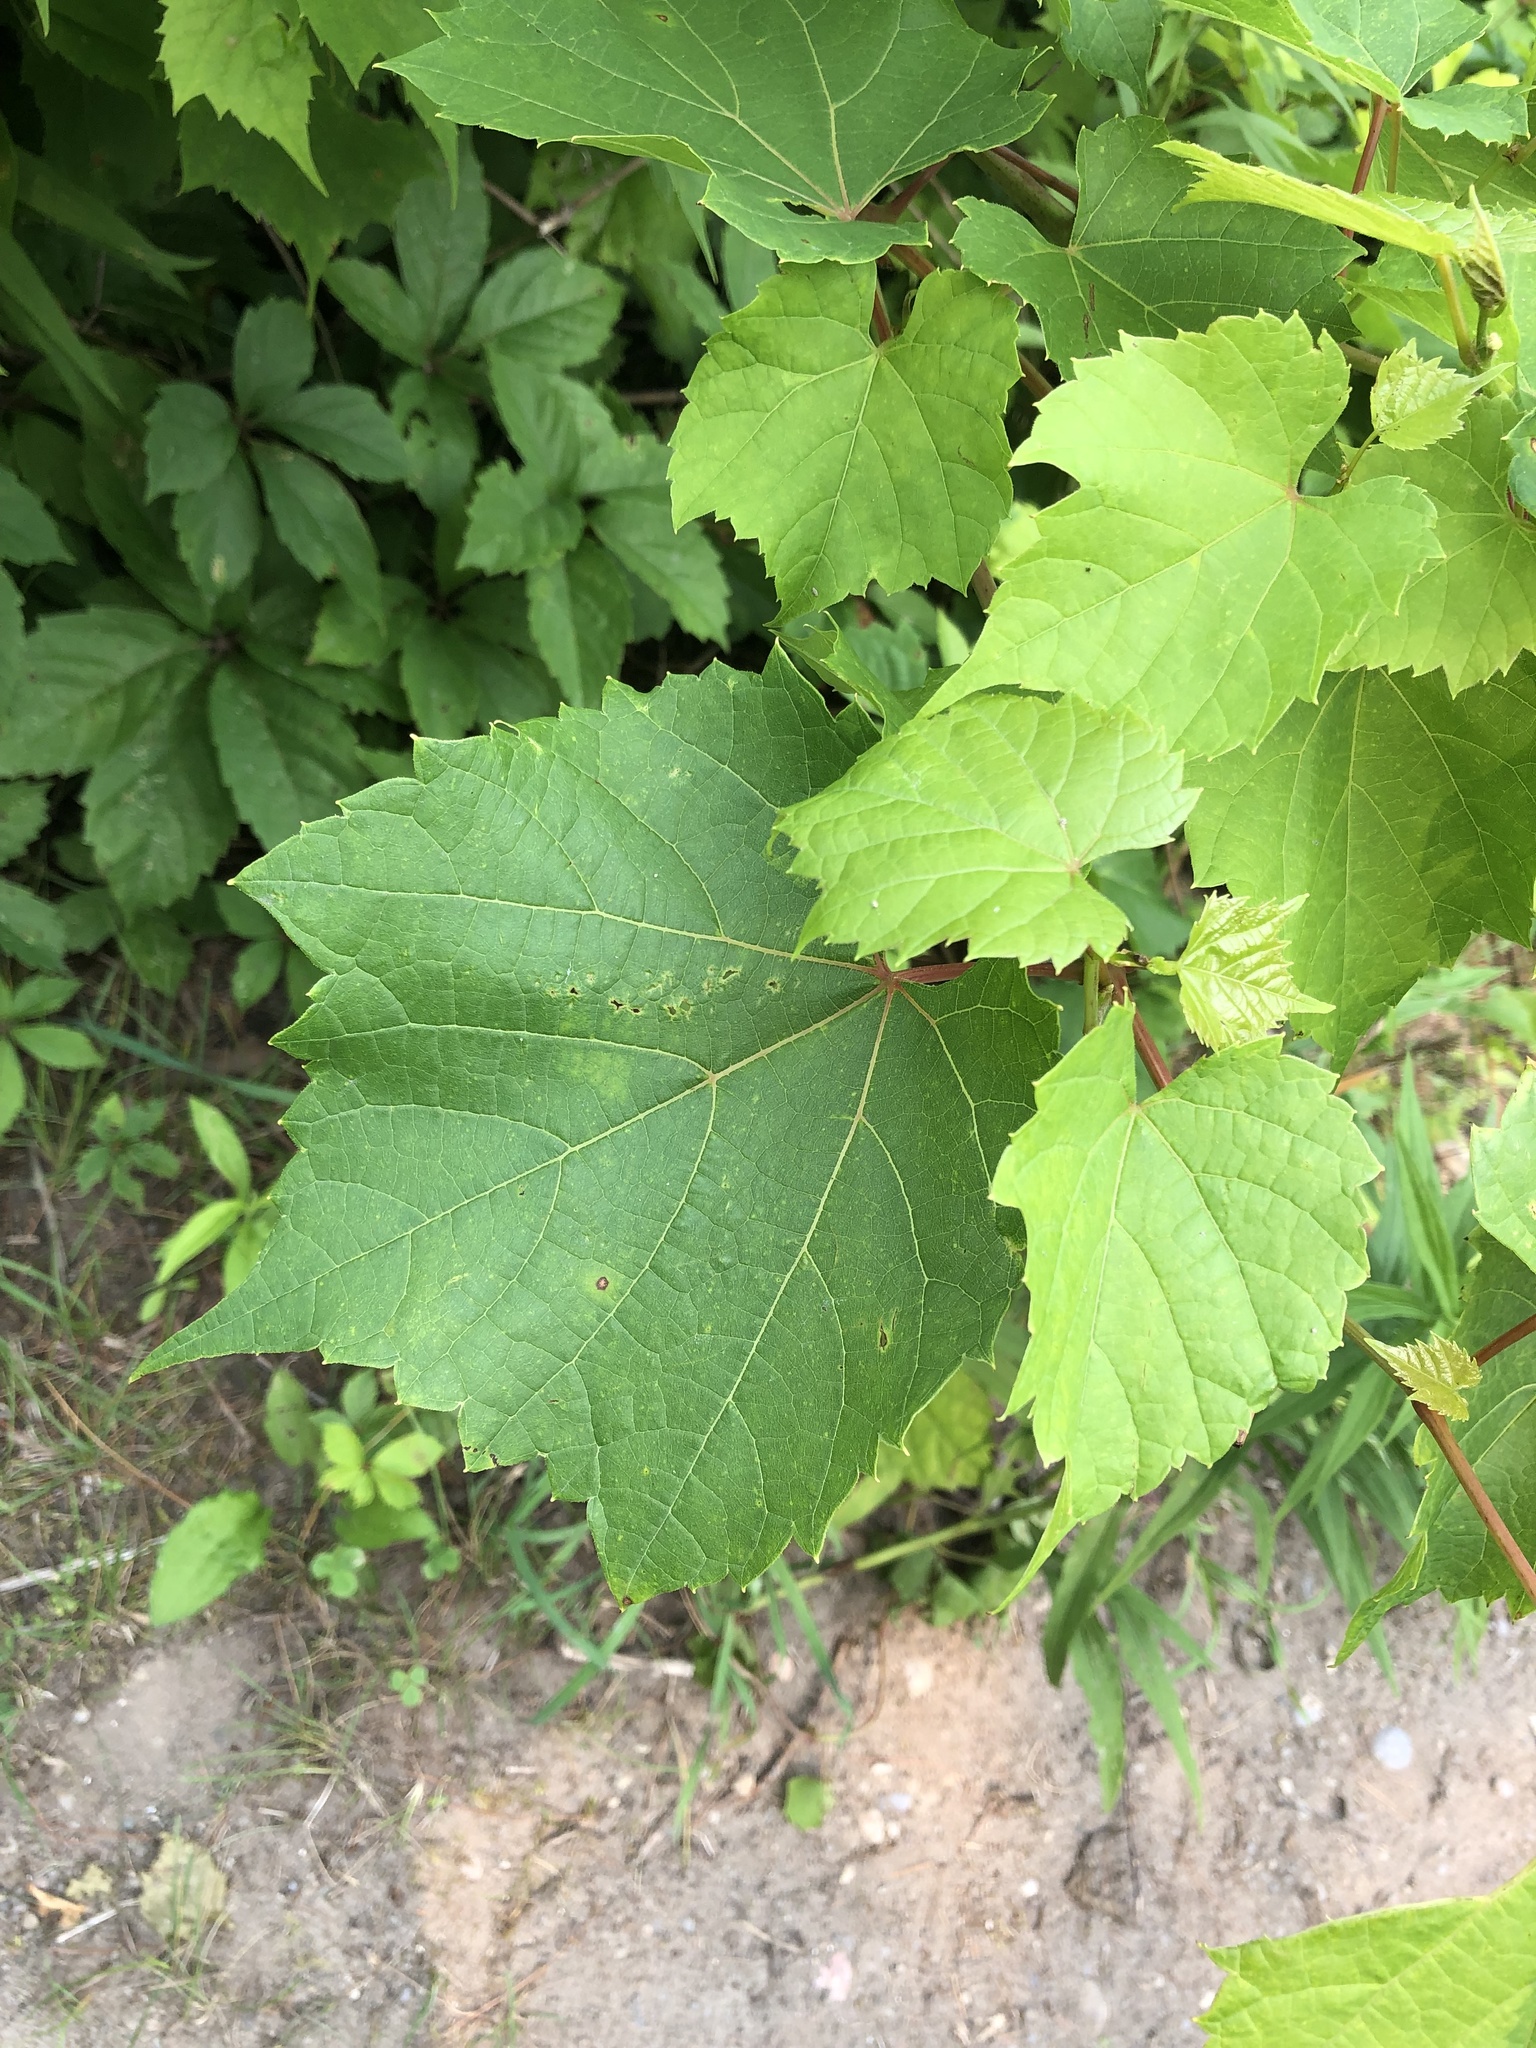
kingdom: Plantae
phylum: Tracheophyta
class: Magnoliopsida
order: Vitales
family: Vitaceae
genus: Vitis
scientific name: Vitis riparia
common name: Frost grape
